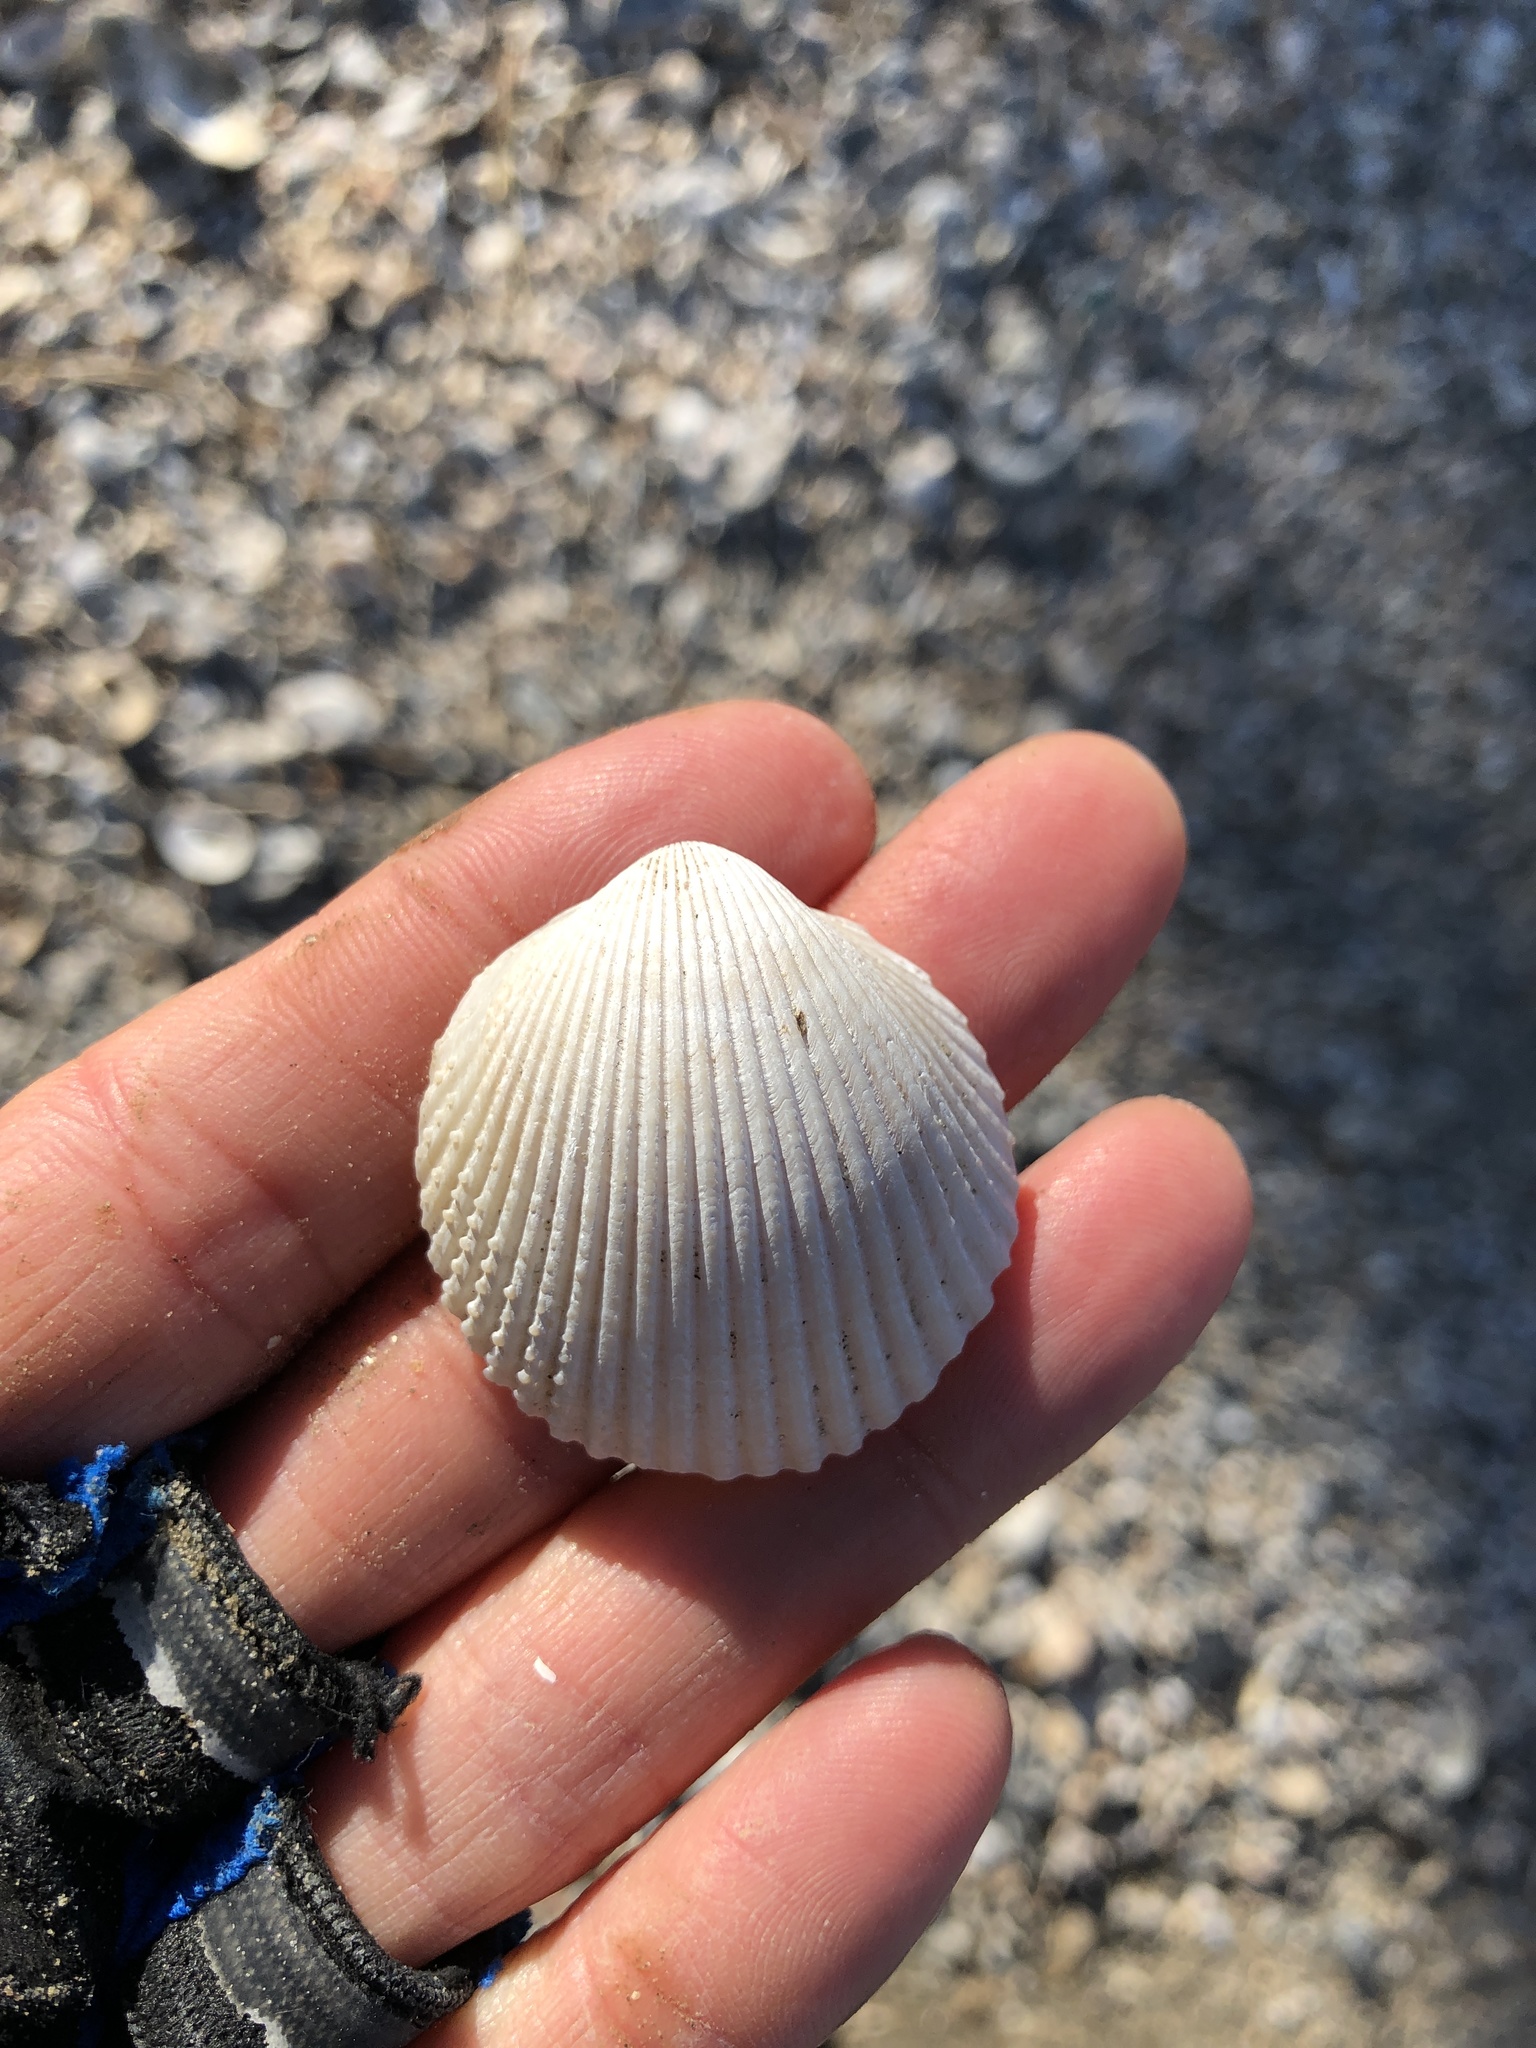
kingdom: Animalia
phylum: Mollusca
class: Bivalvia
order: Cardiida
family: Cardiidae
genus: Dallocardia
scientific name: Dallocardia muricata
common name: Yellow pricklycockle
